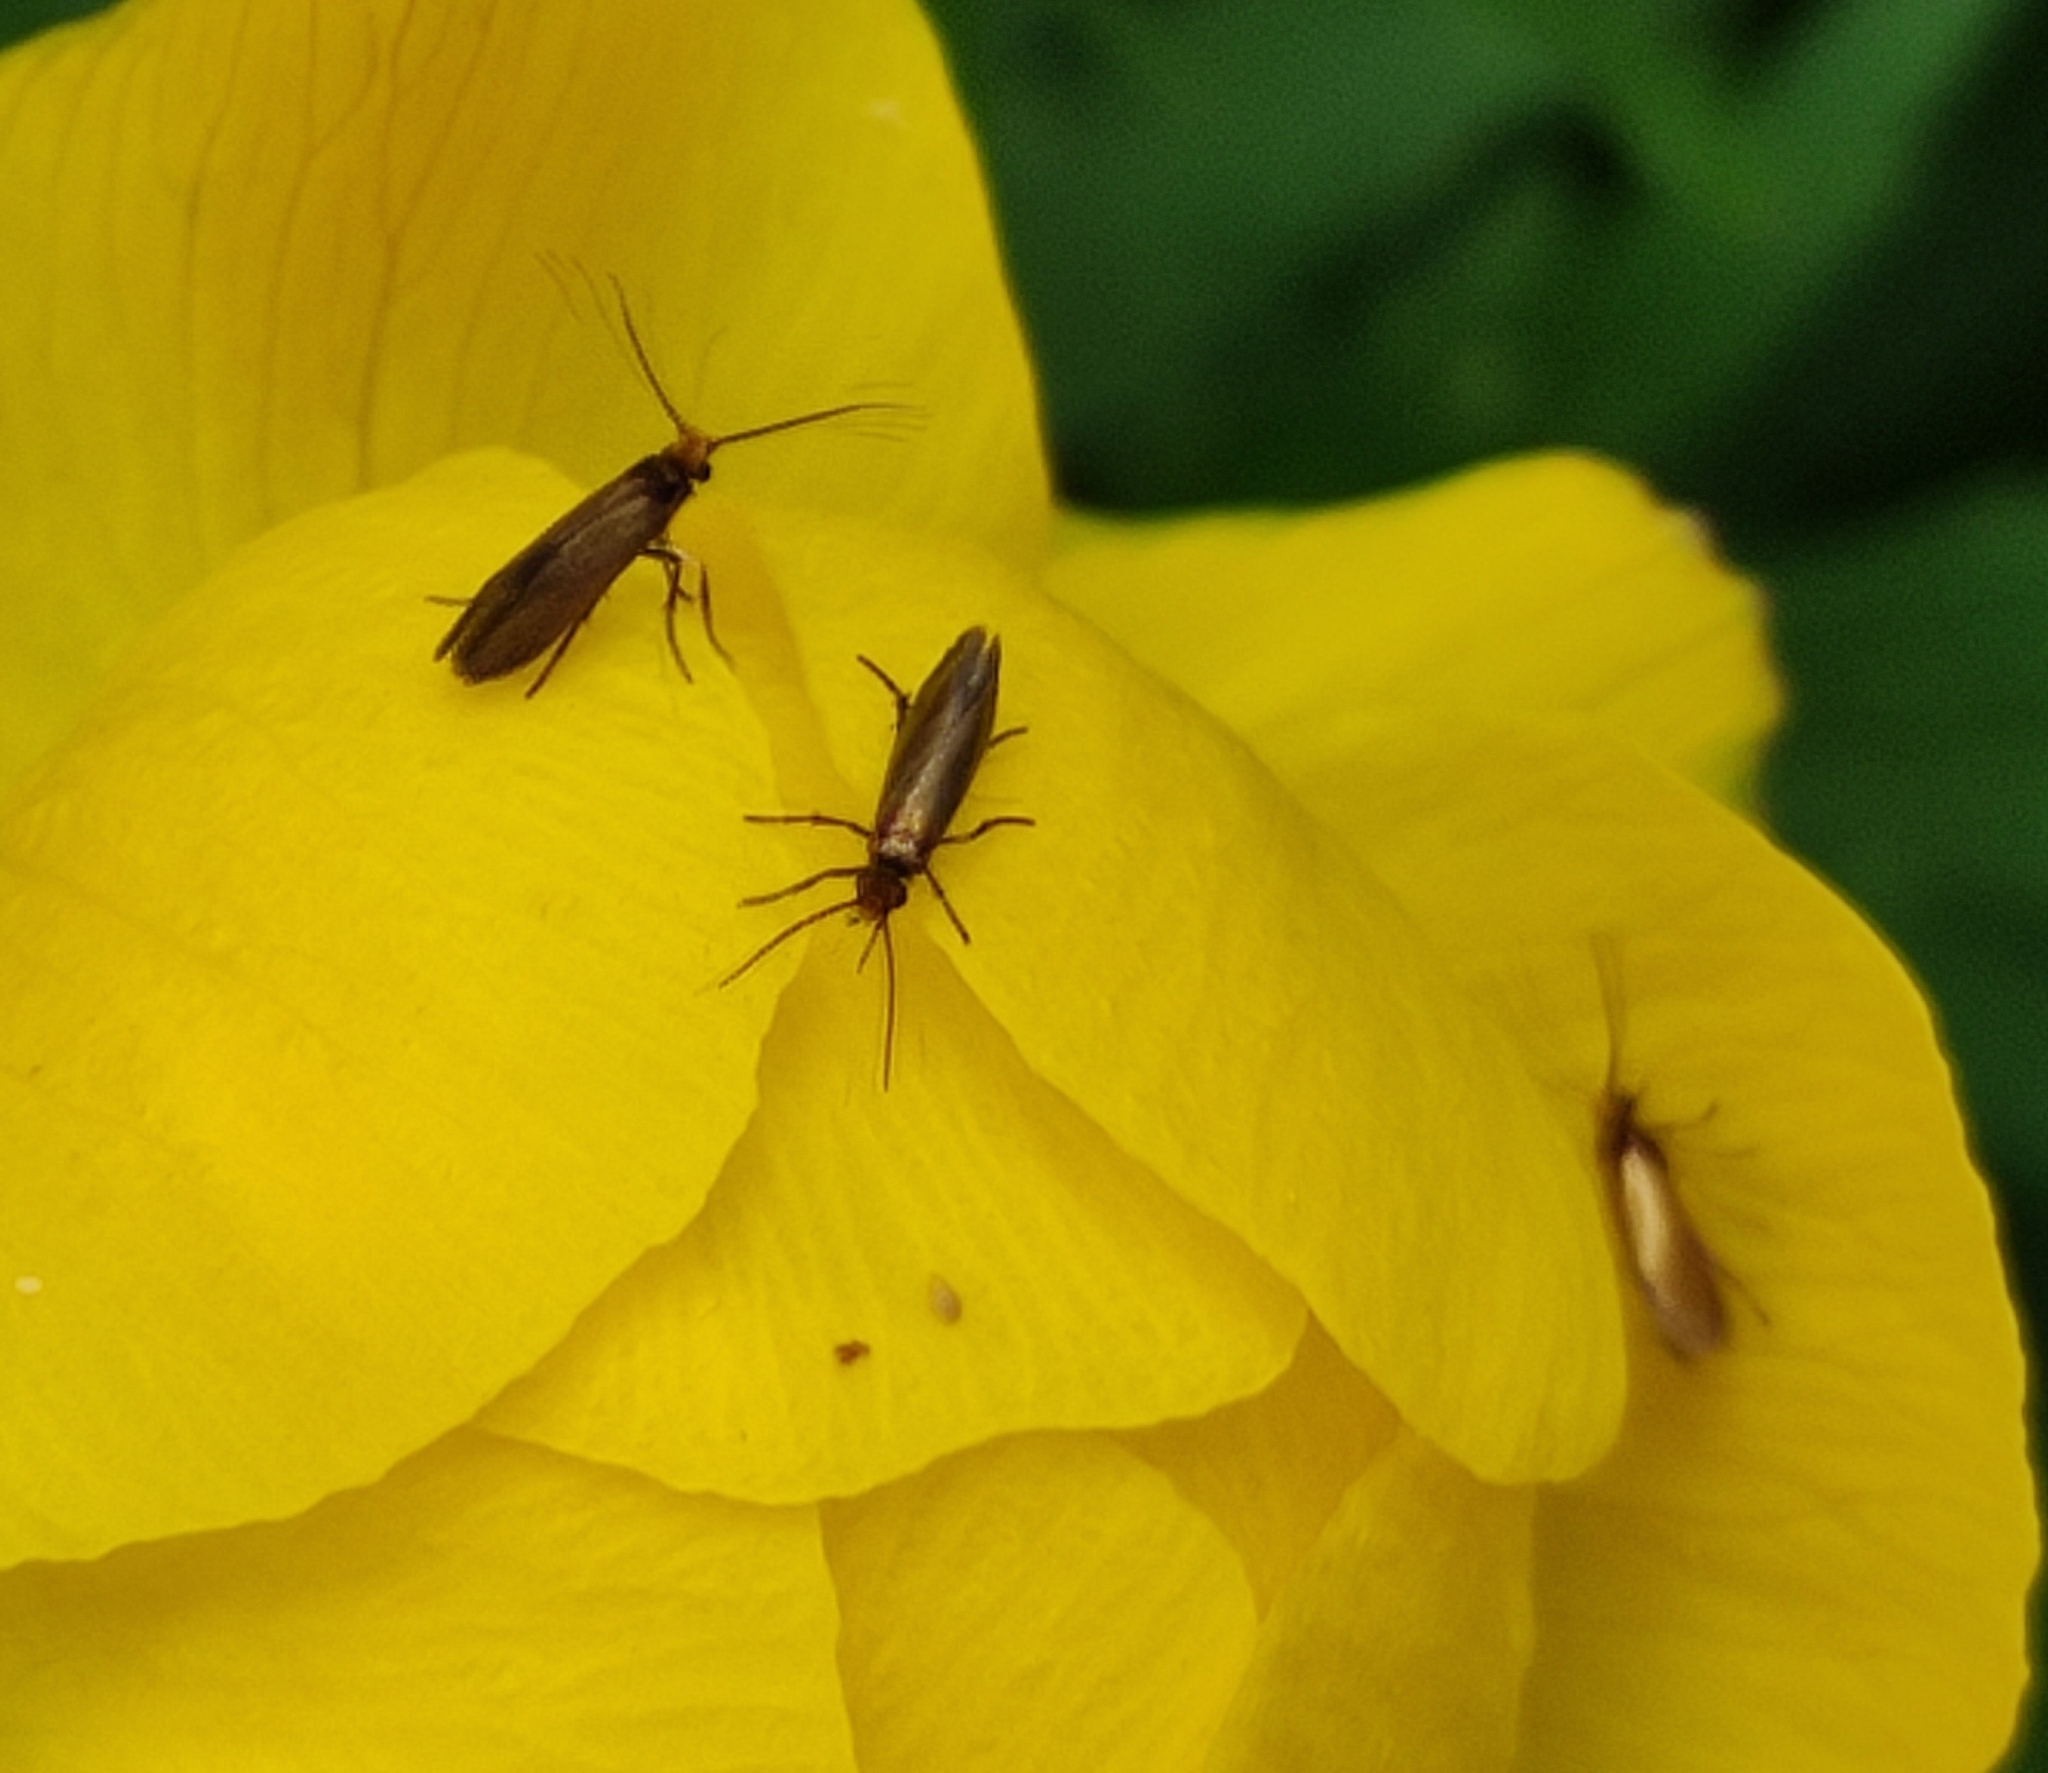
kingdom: Animalia
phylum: Arthropoda
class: Insecta
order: Lepidoptera
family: Micropterigidae
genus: Micropterix
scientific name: Micropterix calthella
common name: Plain gold
